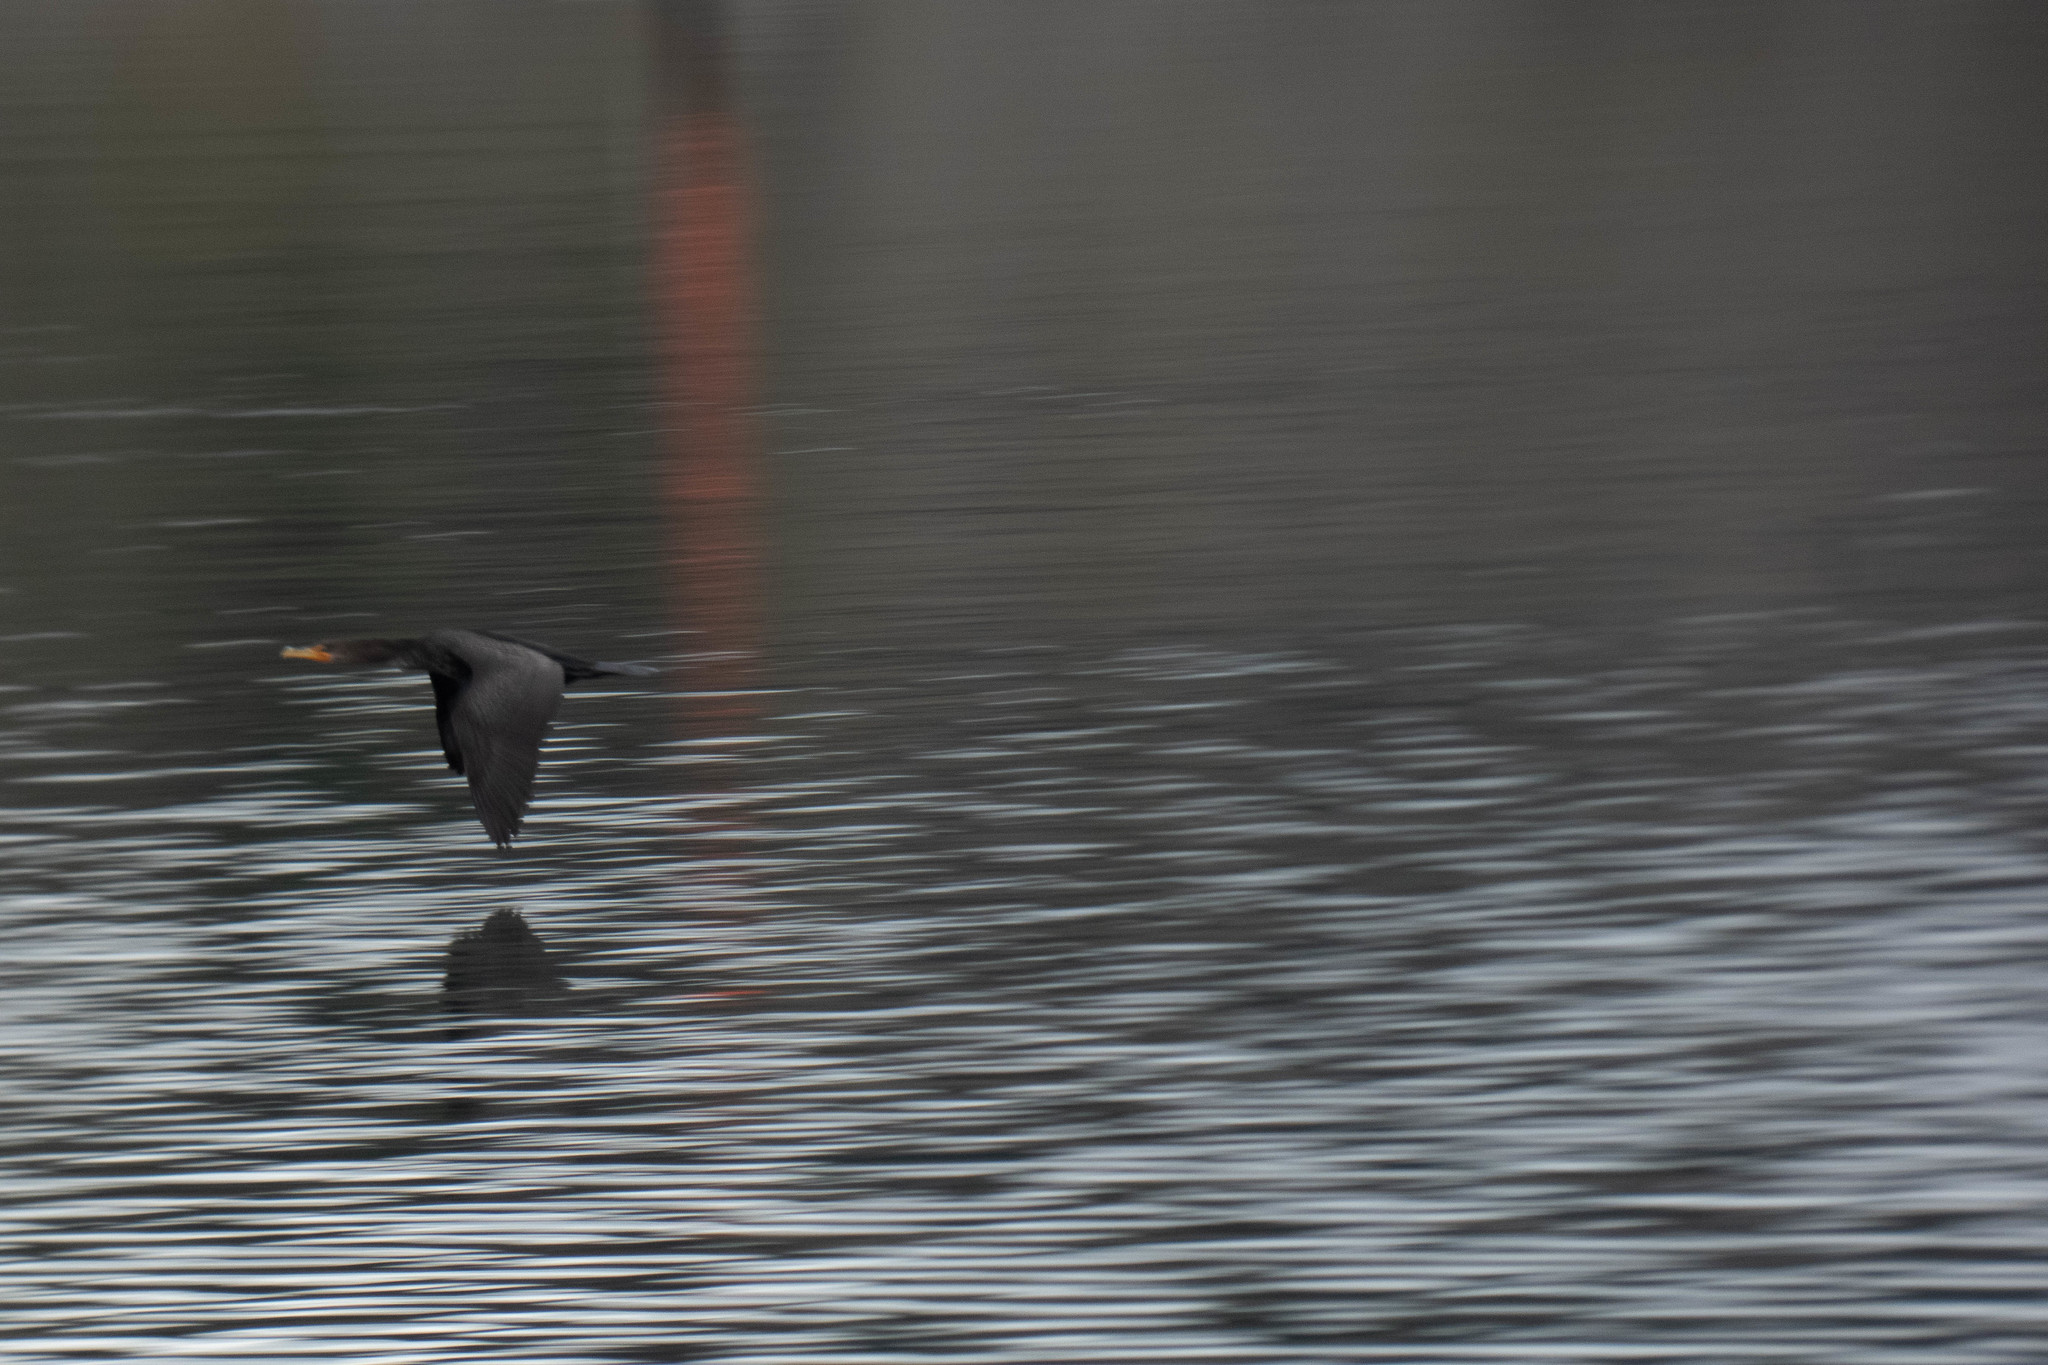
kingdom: Animalia
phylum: Chordata
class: Aves
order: Suliformes
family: Phalacrocoracidae
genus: Phalacrocorax
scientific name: Phalacrocorax auritus
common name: Double-crested cormorant
